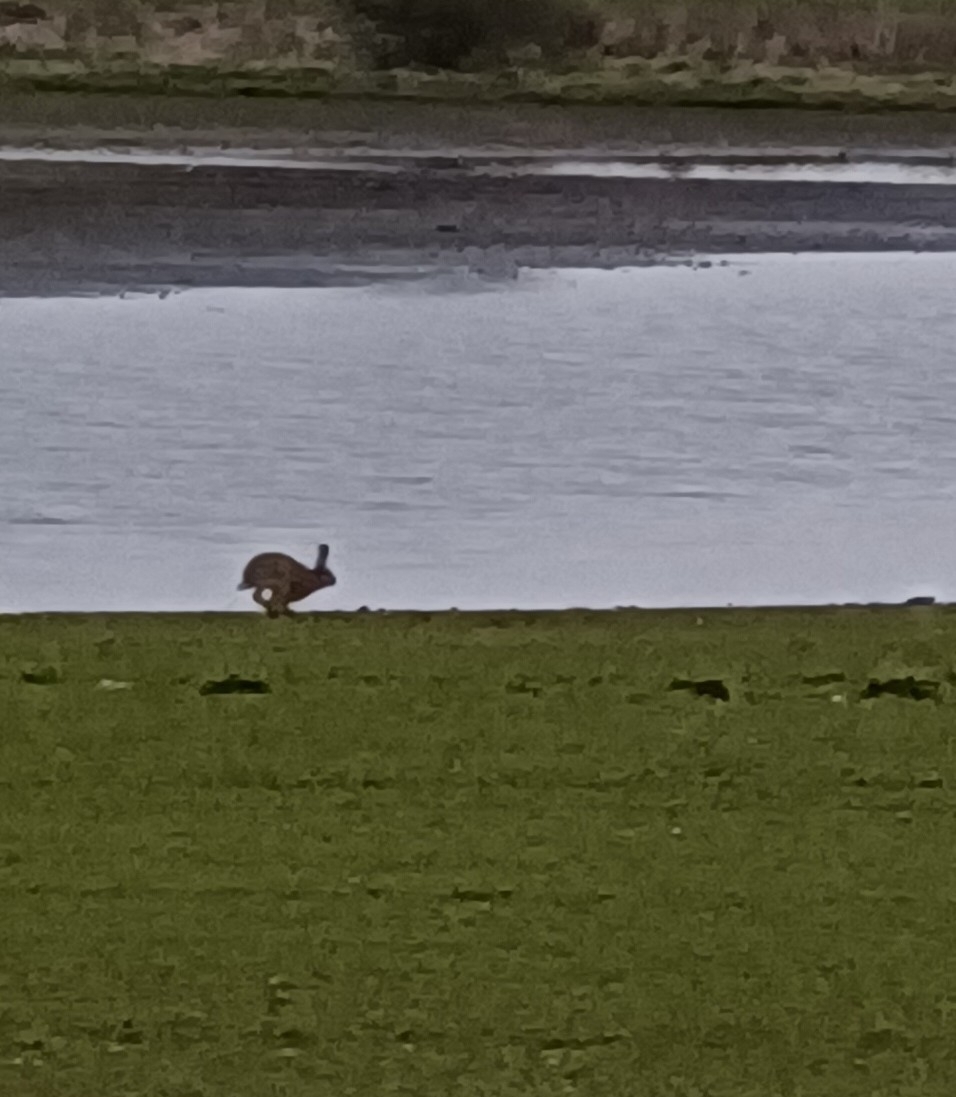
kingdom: Animalia
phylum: Chordata
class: Mammalia
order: Lagomorpha
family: Leporidae
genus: Lepus
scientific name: Lepus europaeus
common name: European hare
